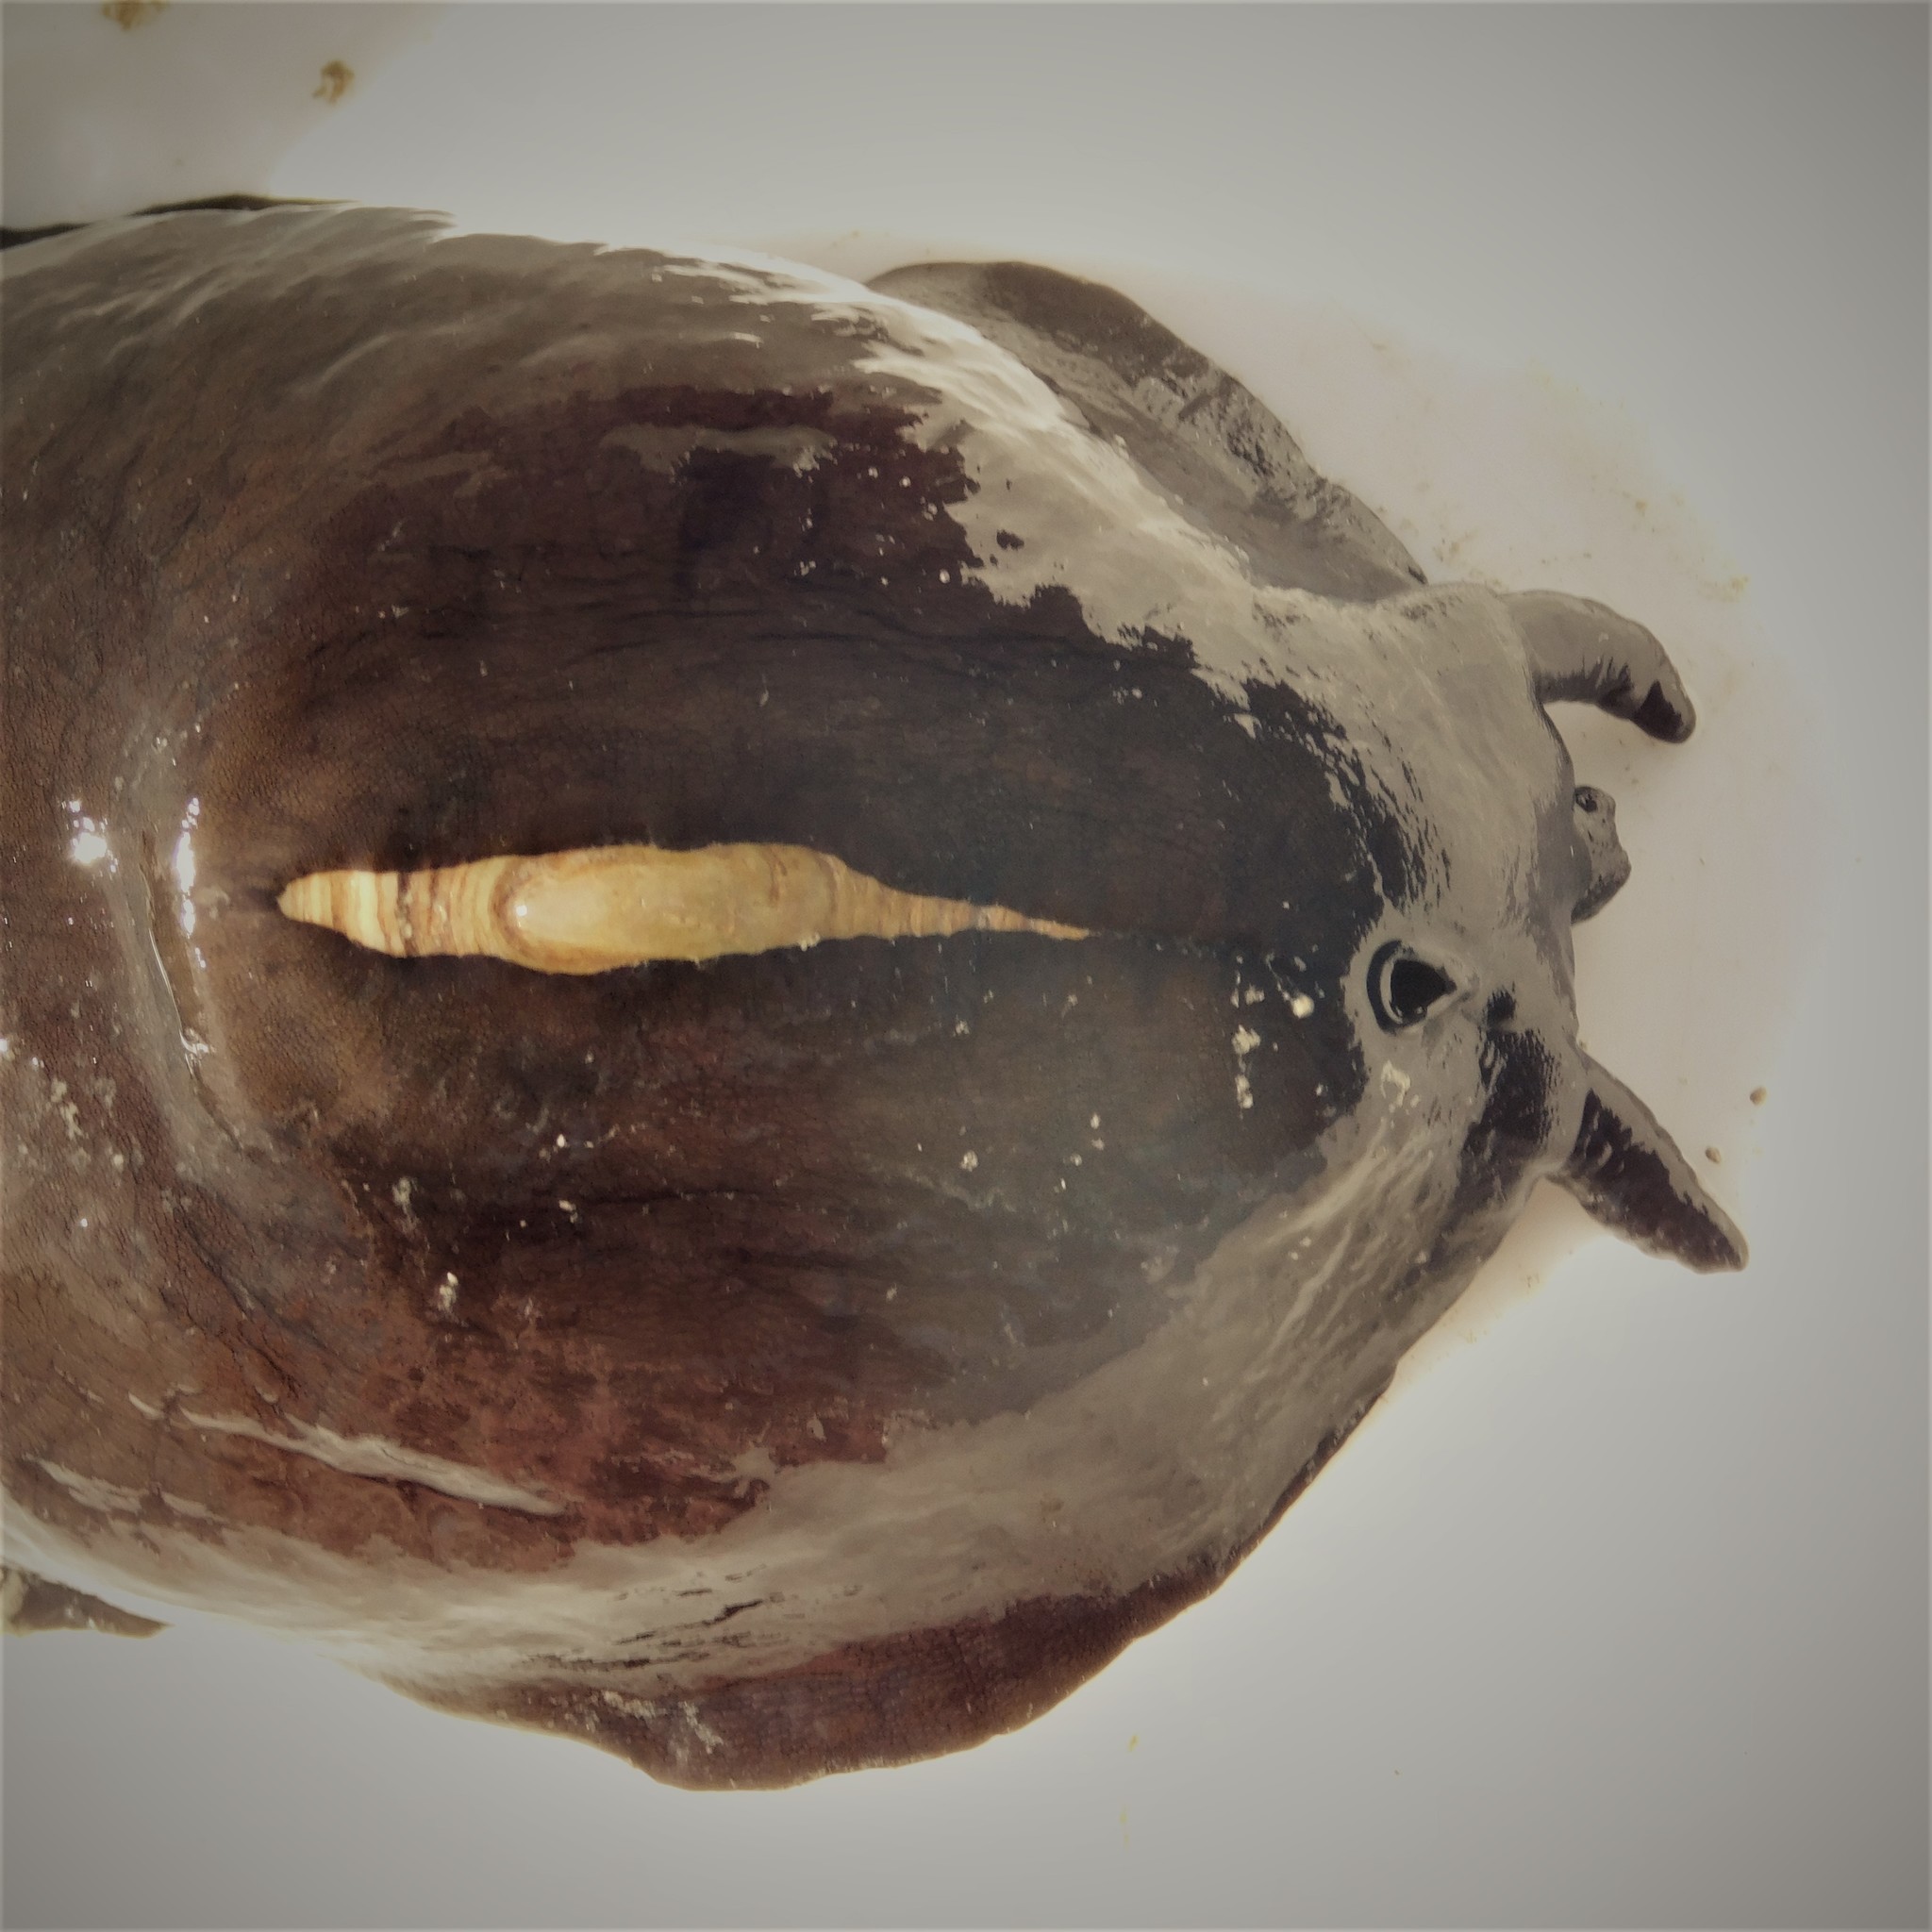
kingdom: Animalia
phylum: Mollusca
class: Gastropoda
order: Lepetellida
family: Fissurellidae
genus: Scutus
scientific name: Scutus breviculus
